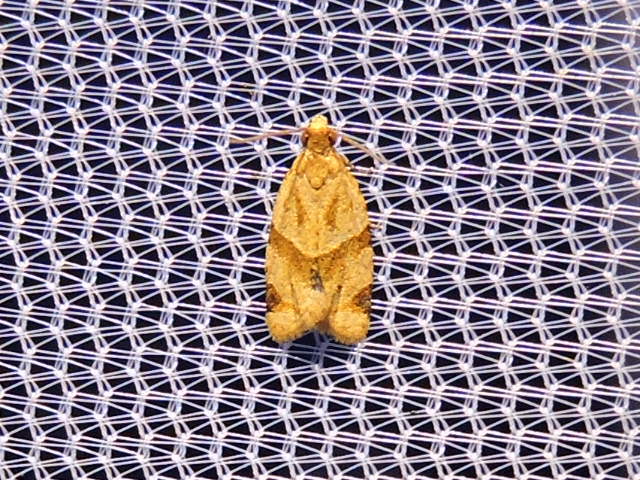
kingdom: Animalia
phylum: Arthropoda
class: Insecta
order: Lepidoptera
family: Tortricidae
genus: Clepsis
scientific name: Clepsis peritana
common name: Garden tortrix
